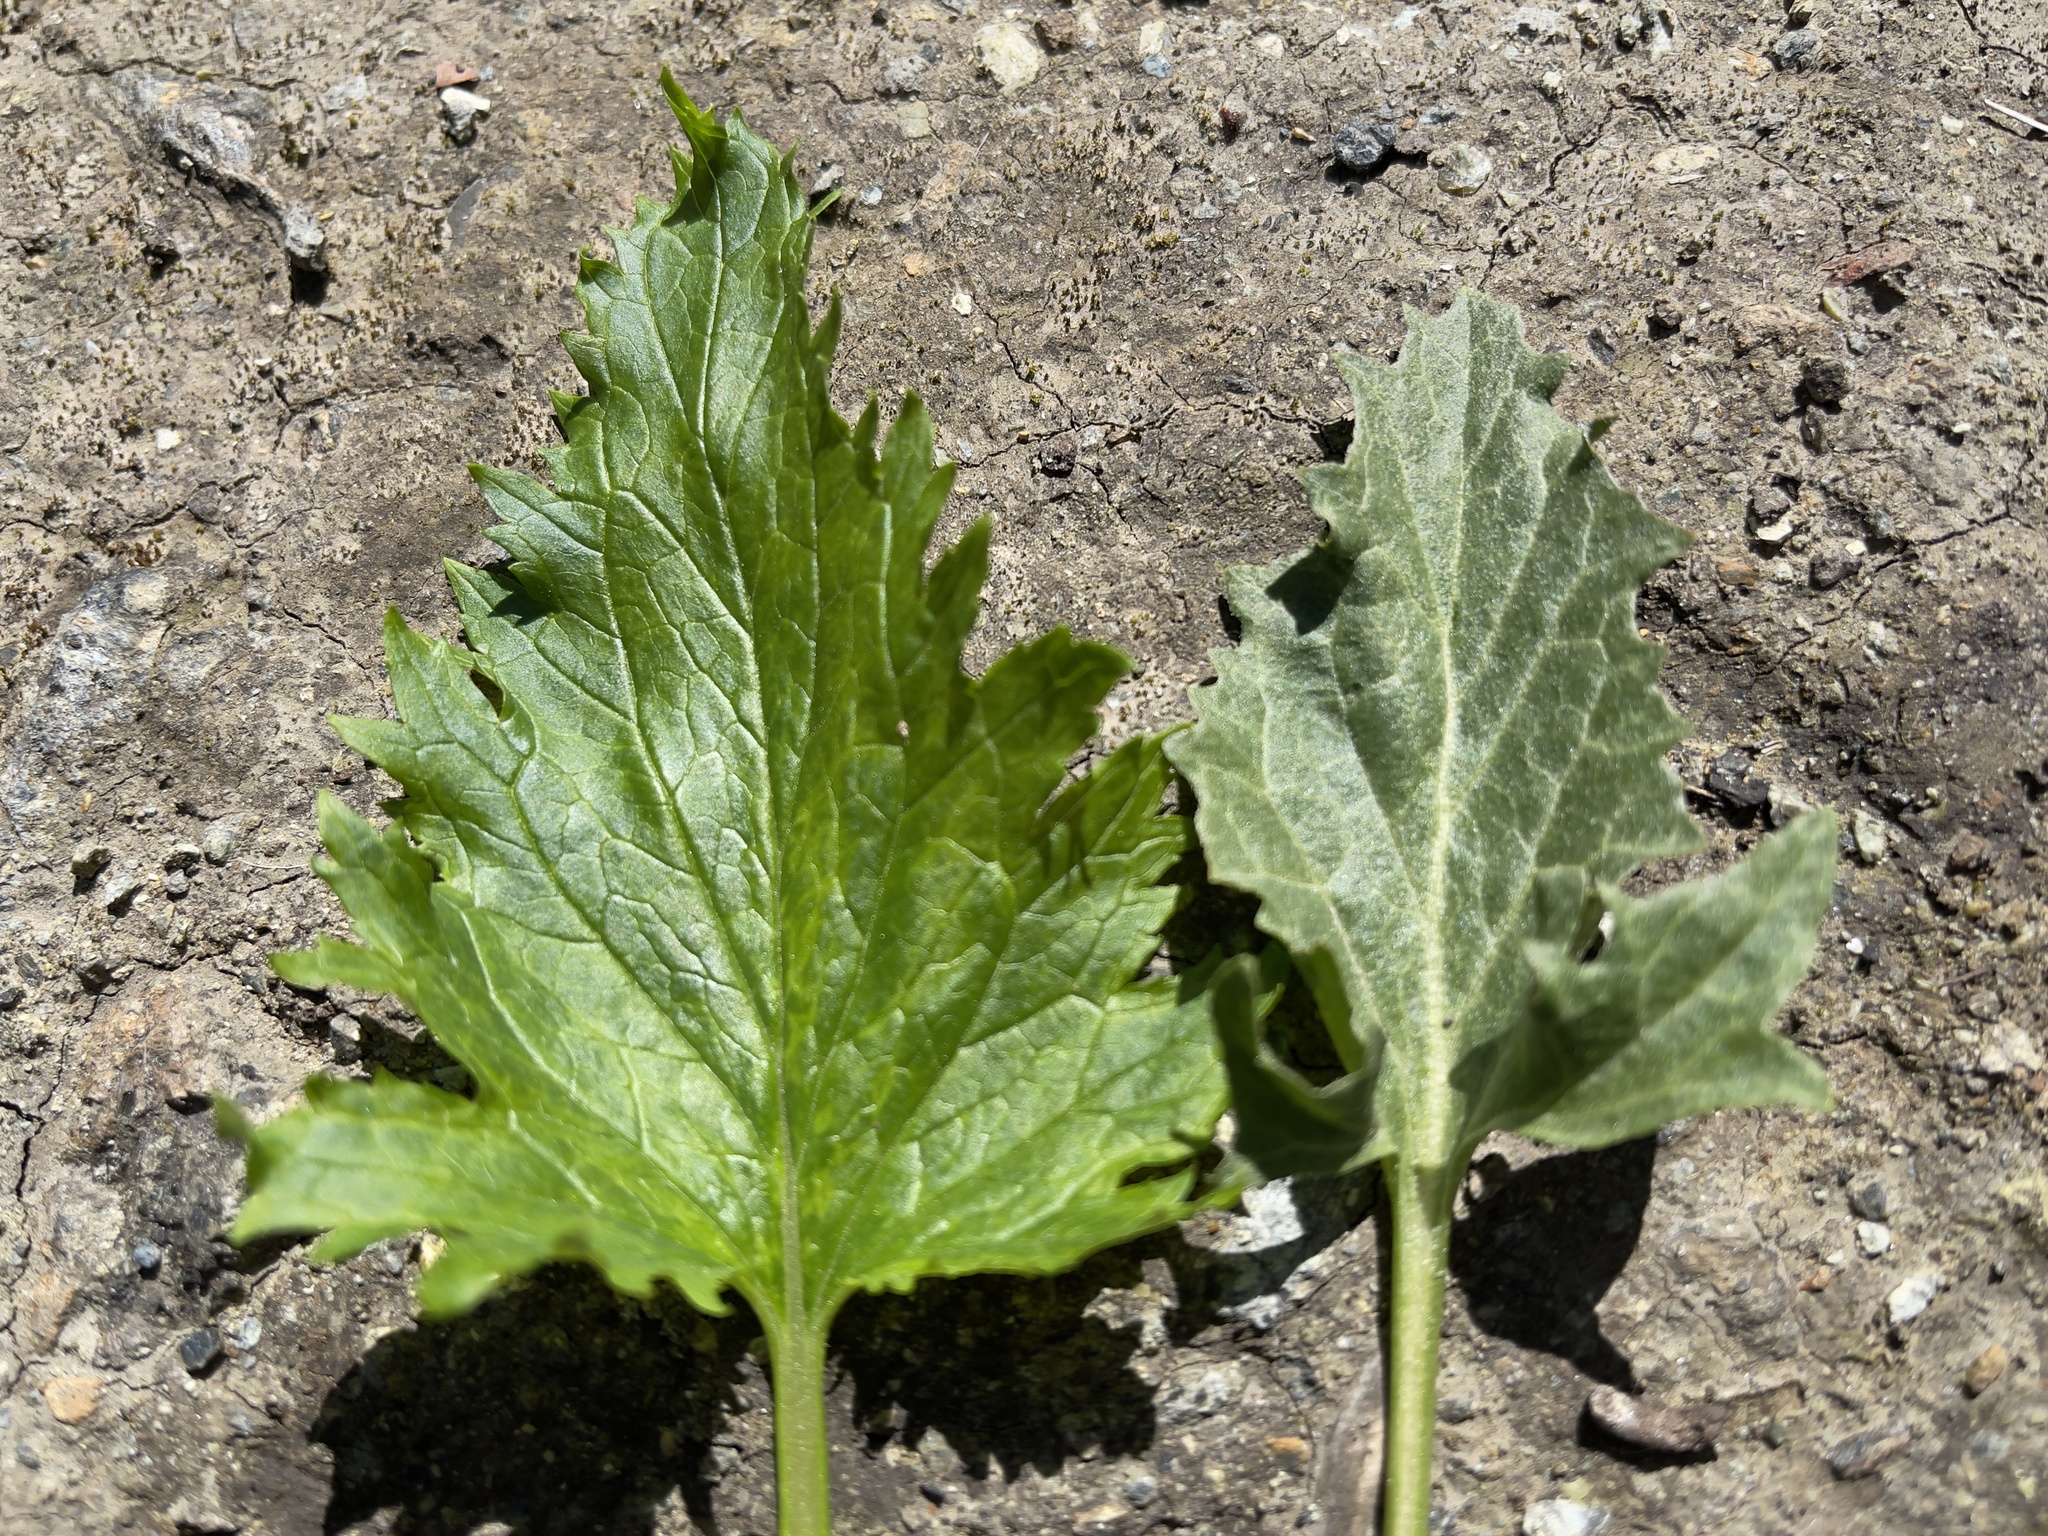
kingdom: Plantae
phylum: Tracheophyta
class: Magnoliopsida
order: Lamiales
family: Scrophulariaceae
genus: Scrophularia
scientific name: Scrophularia californica
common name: California figwort
